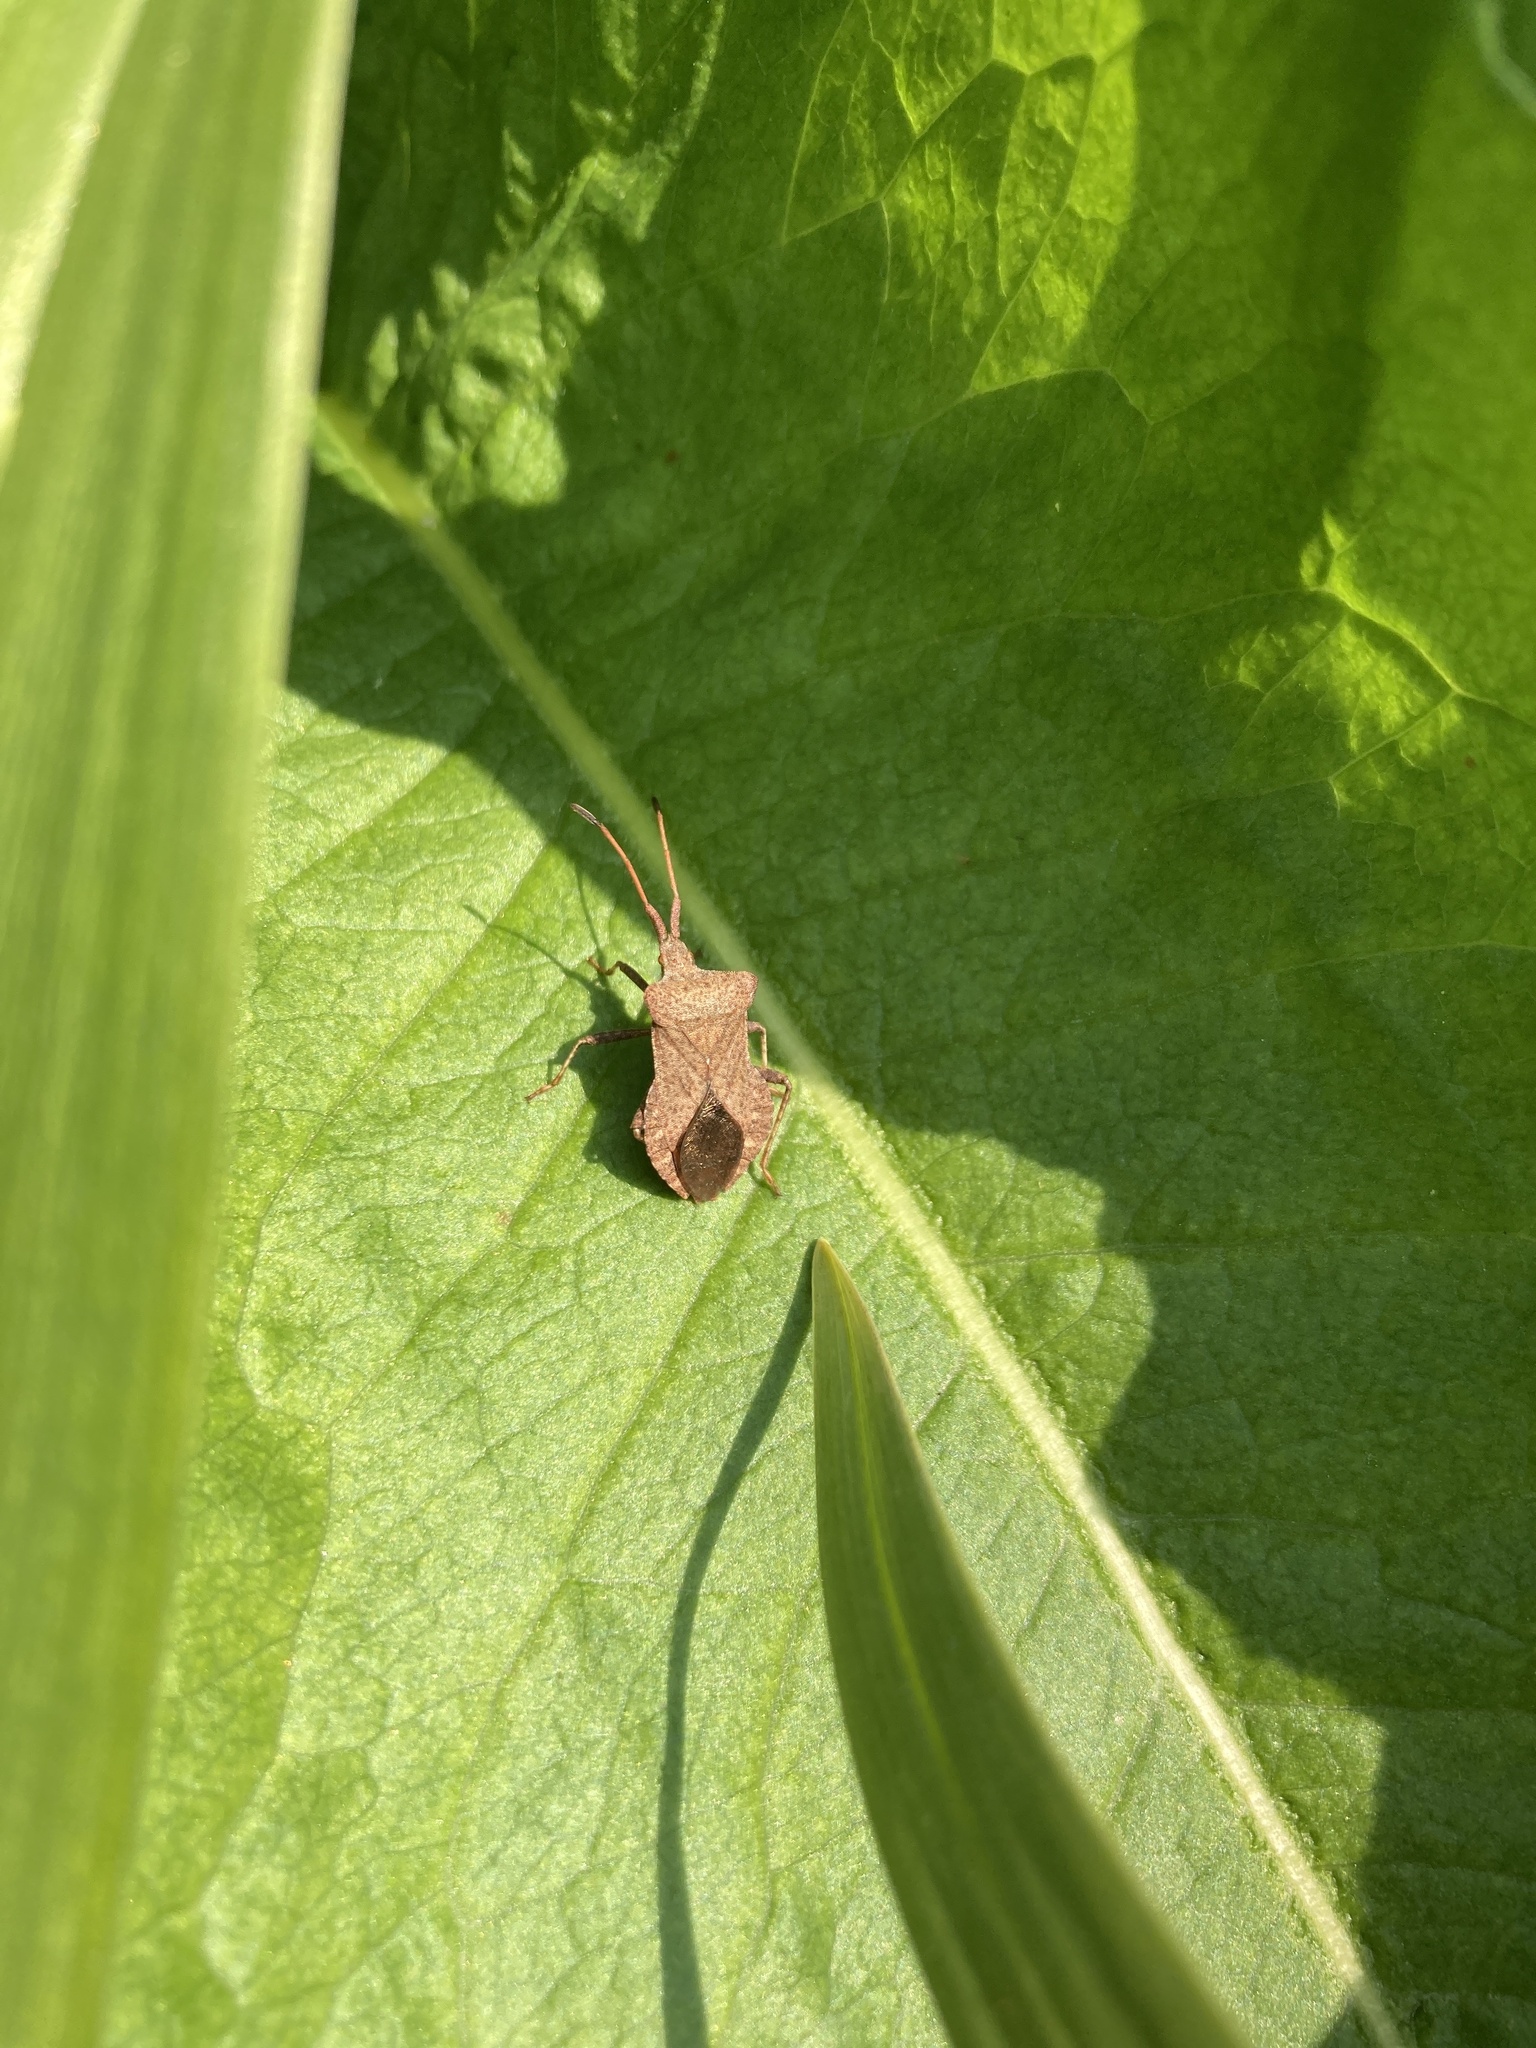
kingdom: Animalia
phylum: Arthropoda
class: Insecta
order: Hemiptera
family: Coreidae
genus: Coreus
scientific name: Coreus marginatus
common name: Dock bug
